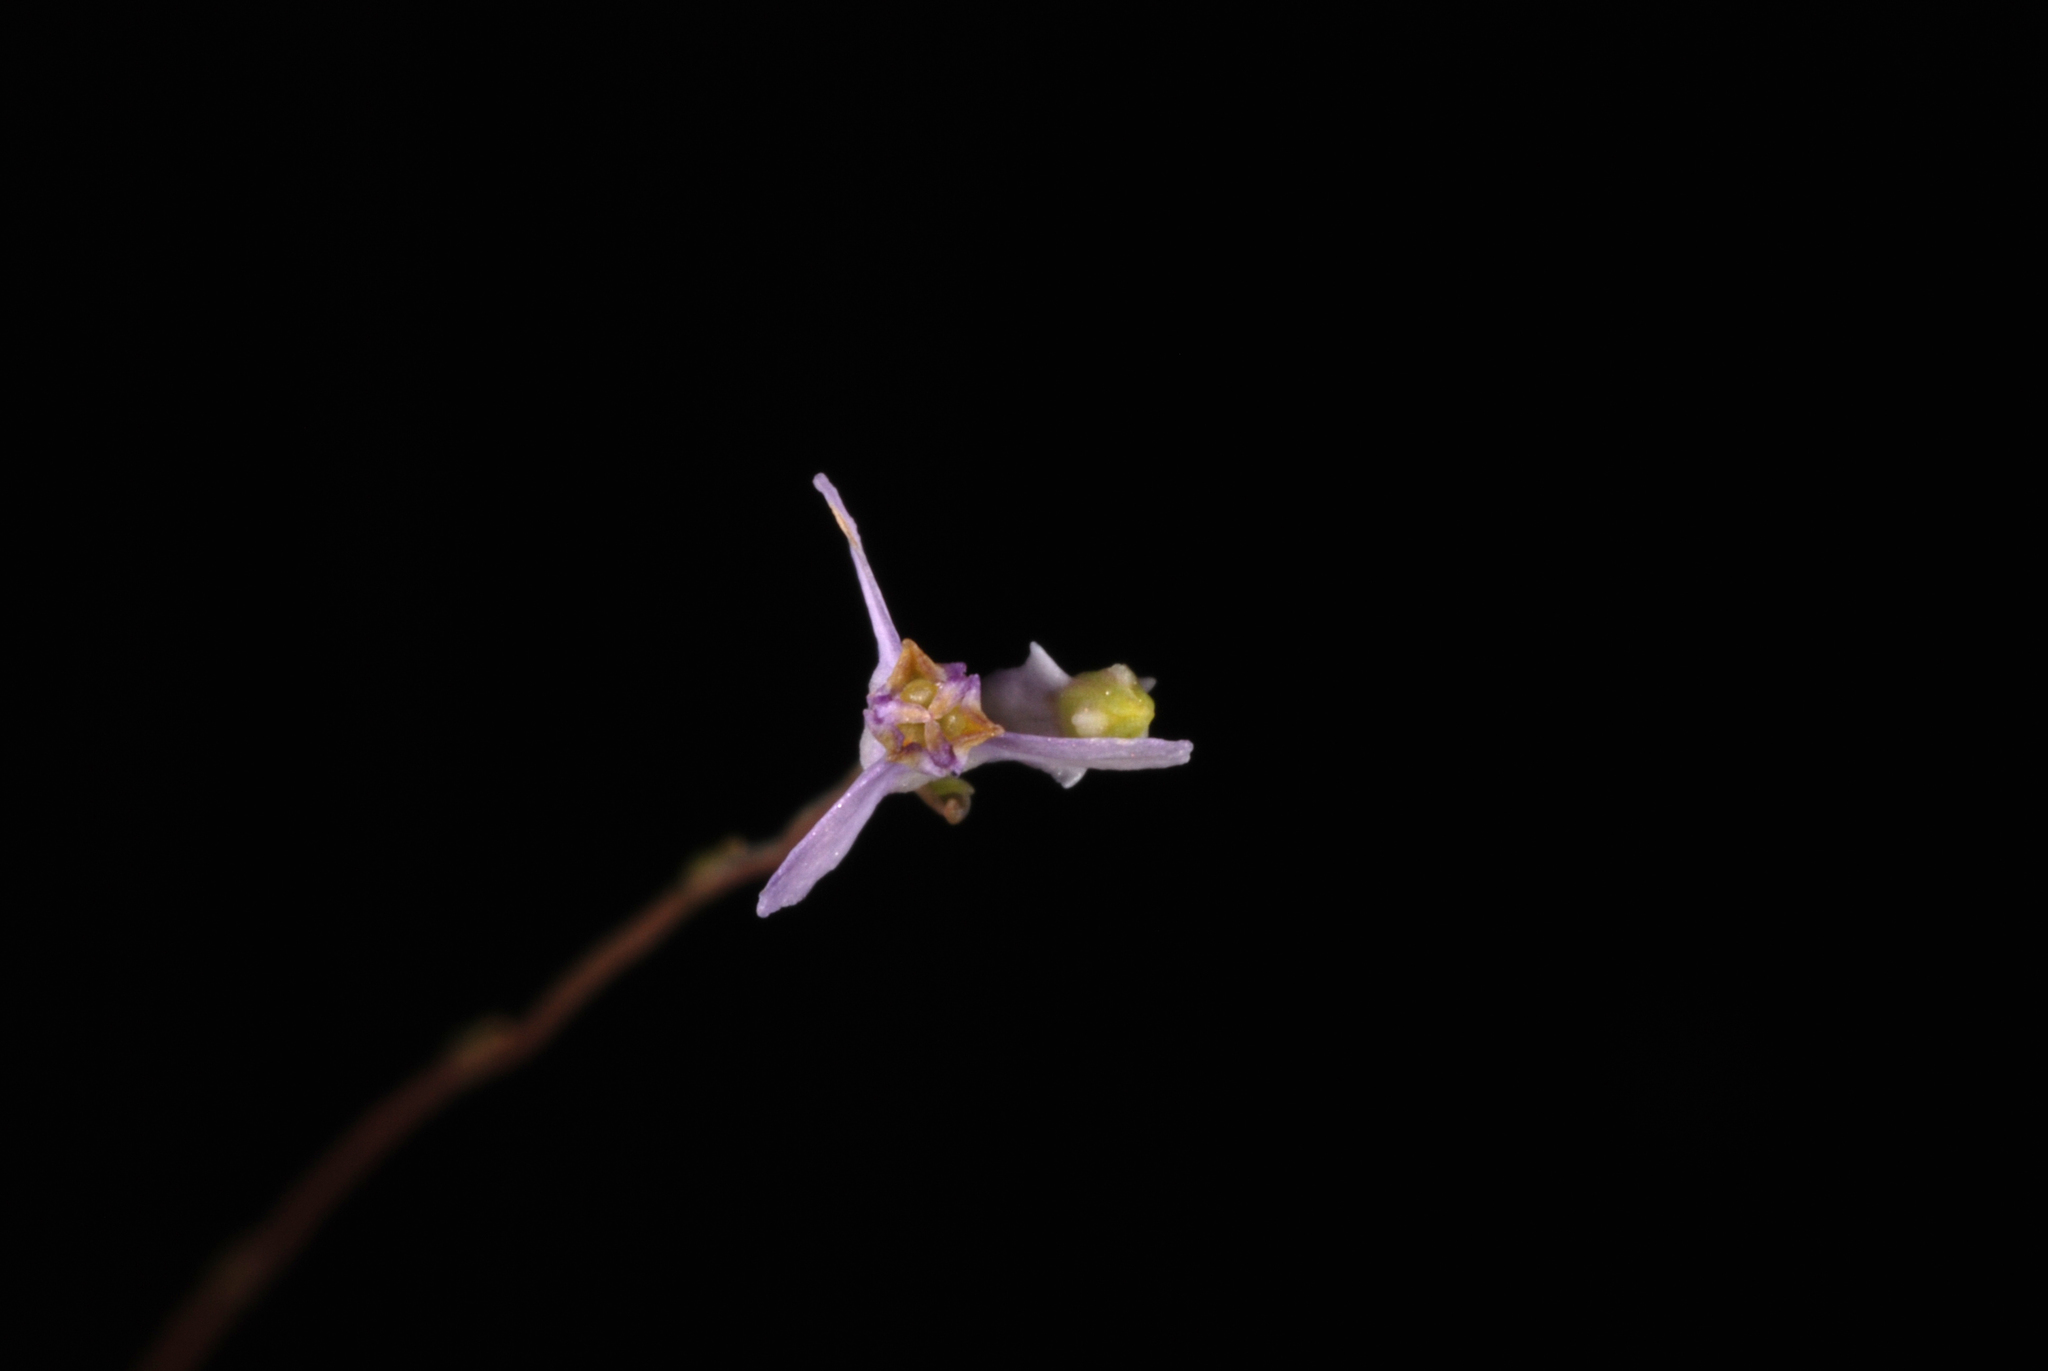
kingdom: Plantae
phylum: Tracheophyta
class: Liliopsida
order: Dioscoreales
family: Burmanniaceae
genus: Burmannia
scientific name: Burmannia biflora
